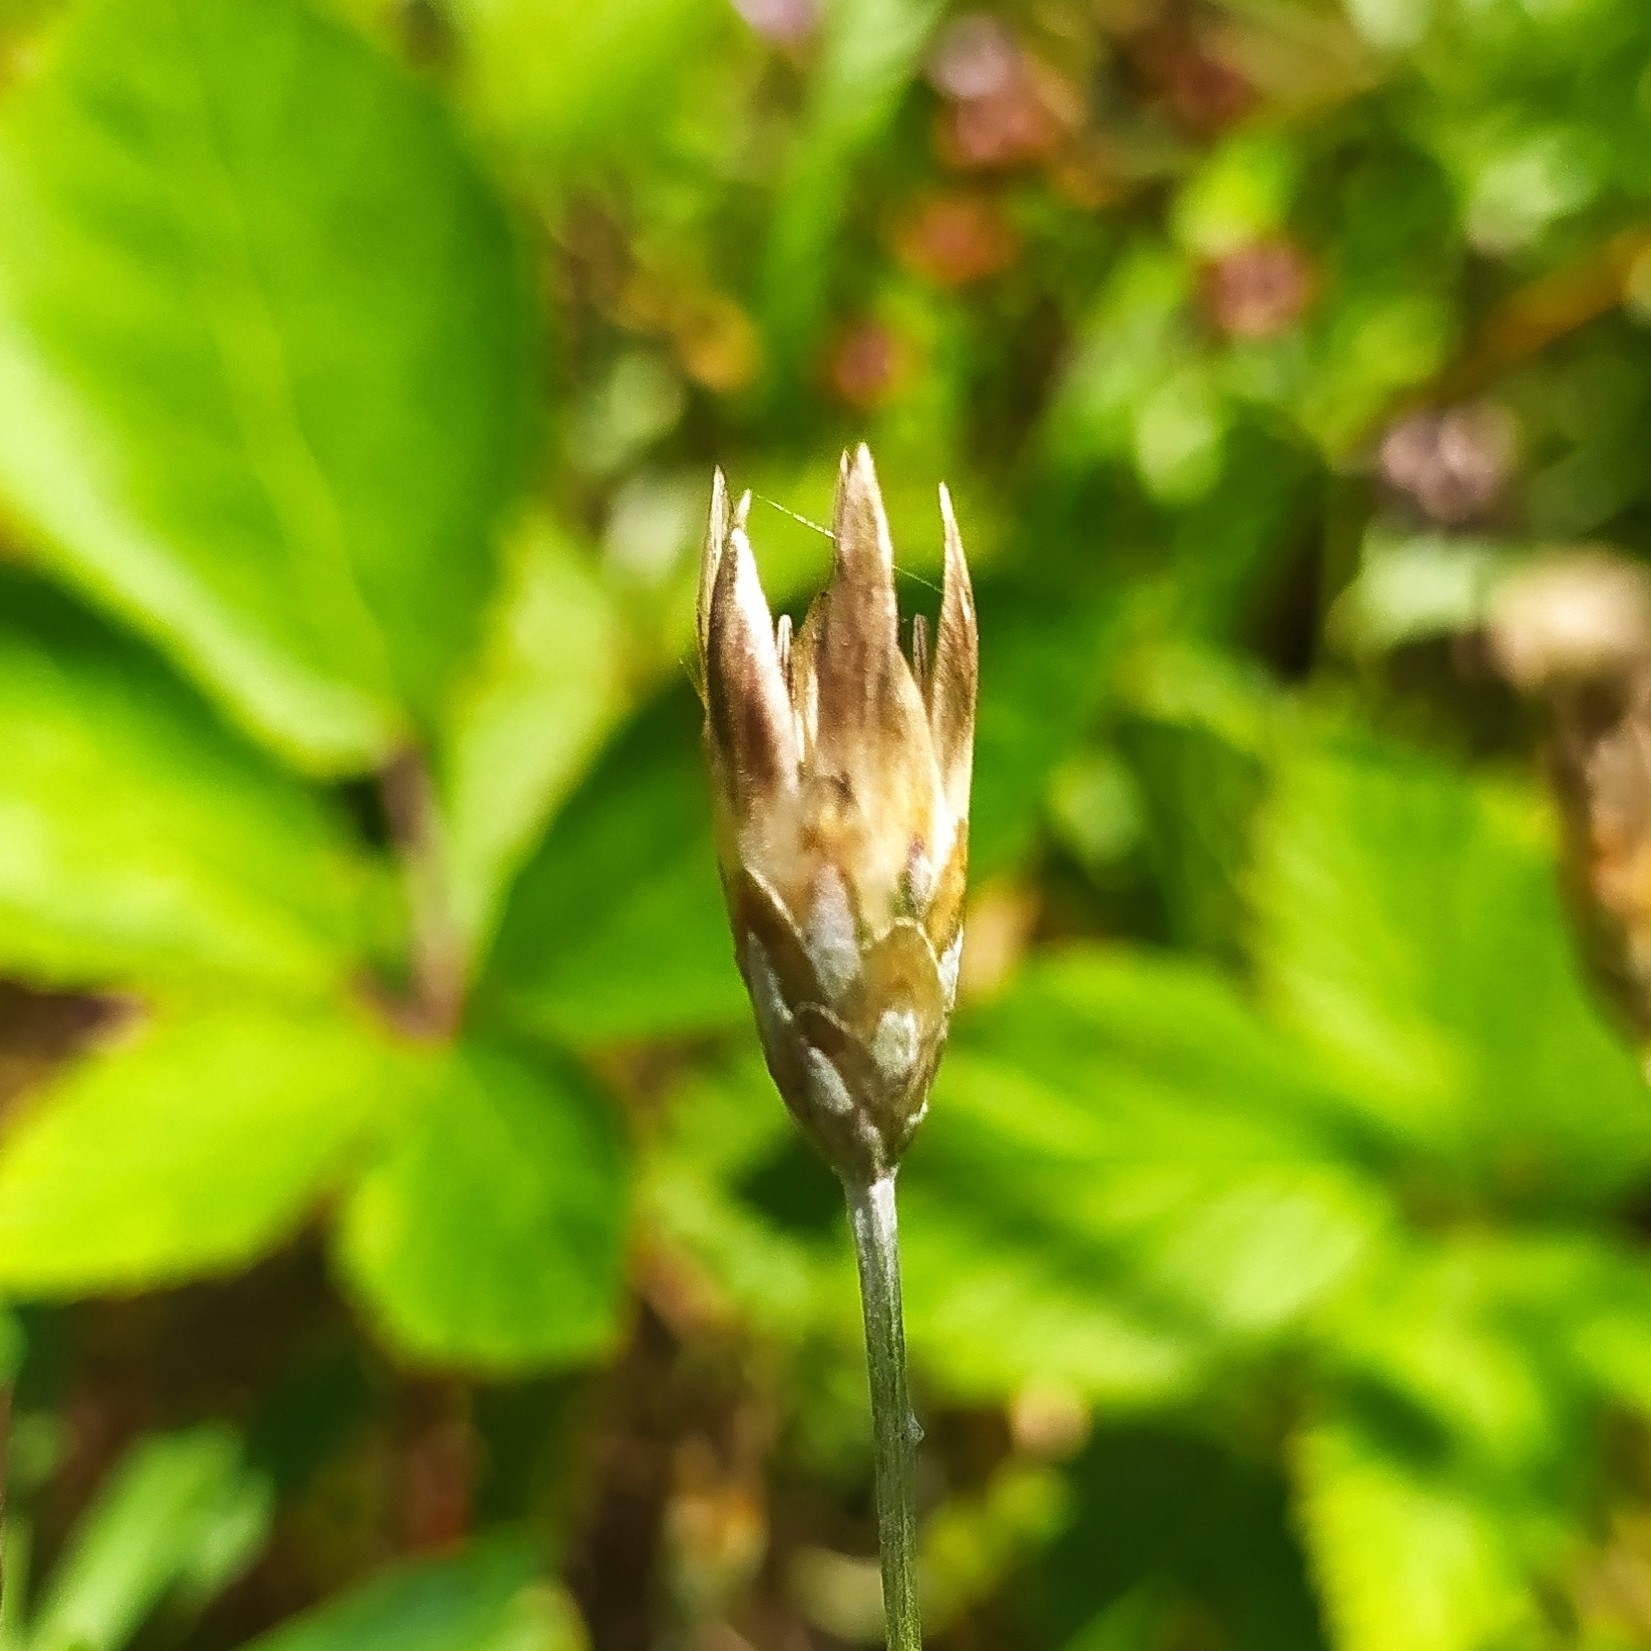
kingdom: Plantae
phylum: Tracheophyta
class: Magnoliopsida
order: Asterales
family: Asteraceae
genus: Xeranthemum
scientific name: Xeranthemum cylindraceum
